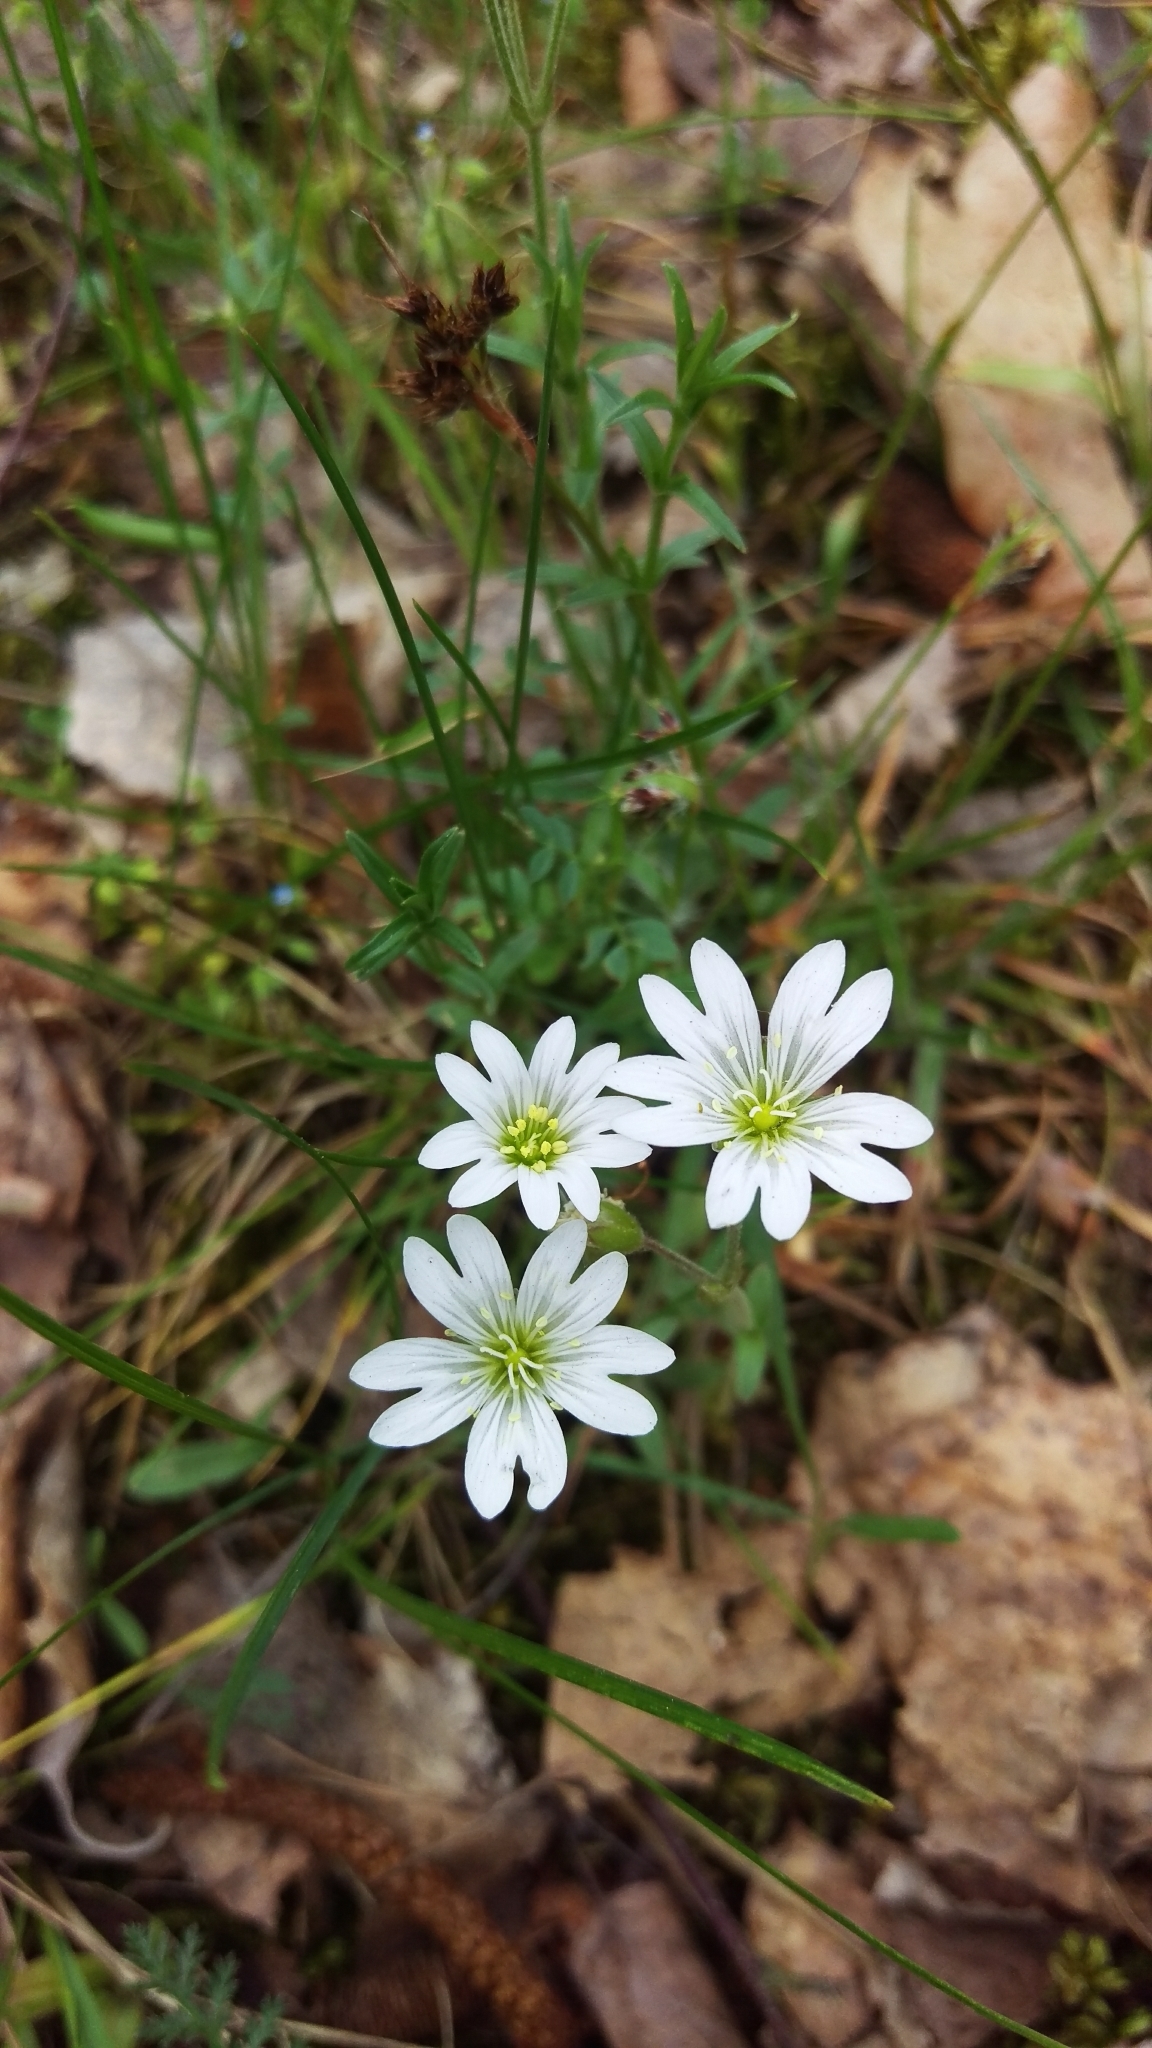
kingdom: Plantae
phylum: Tracheophyta
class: Magnoliopsida
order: Caryophyllales
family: Caryophyllaceae
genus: Cerastium
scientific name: Cerastium arvense
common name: Field mouse-ear
